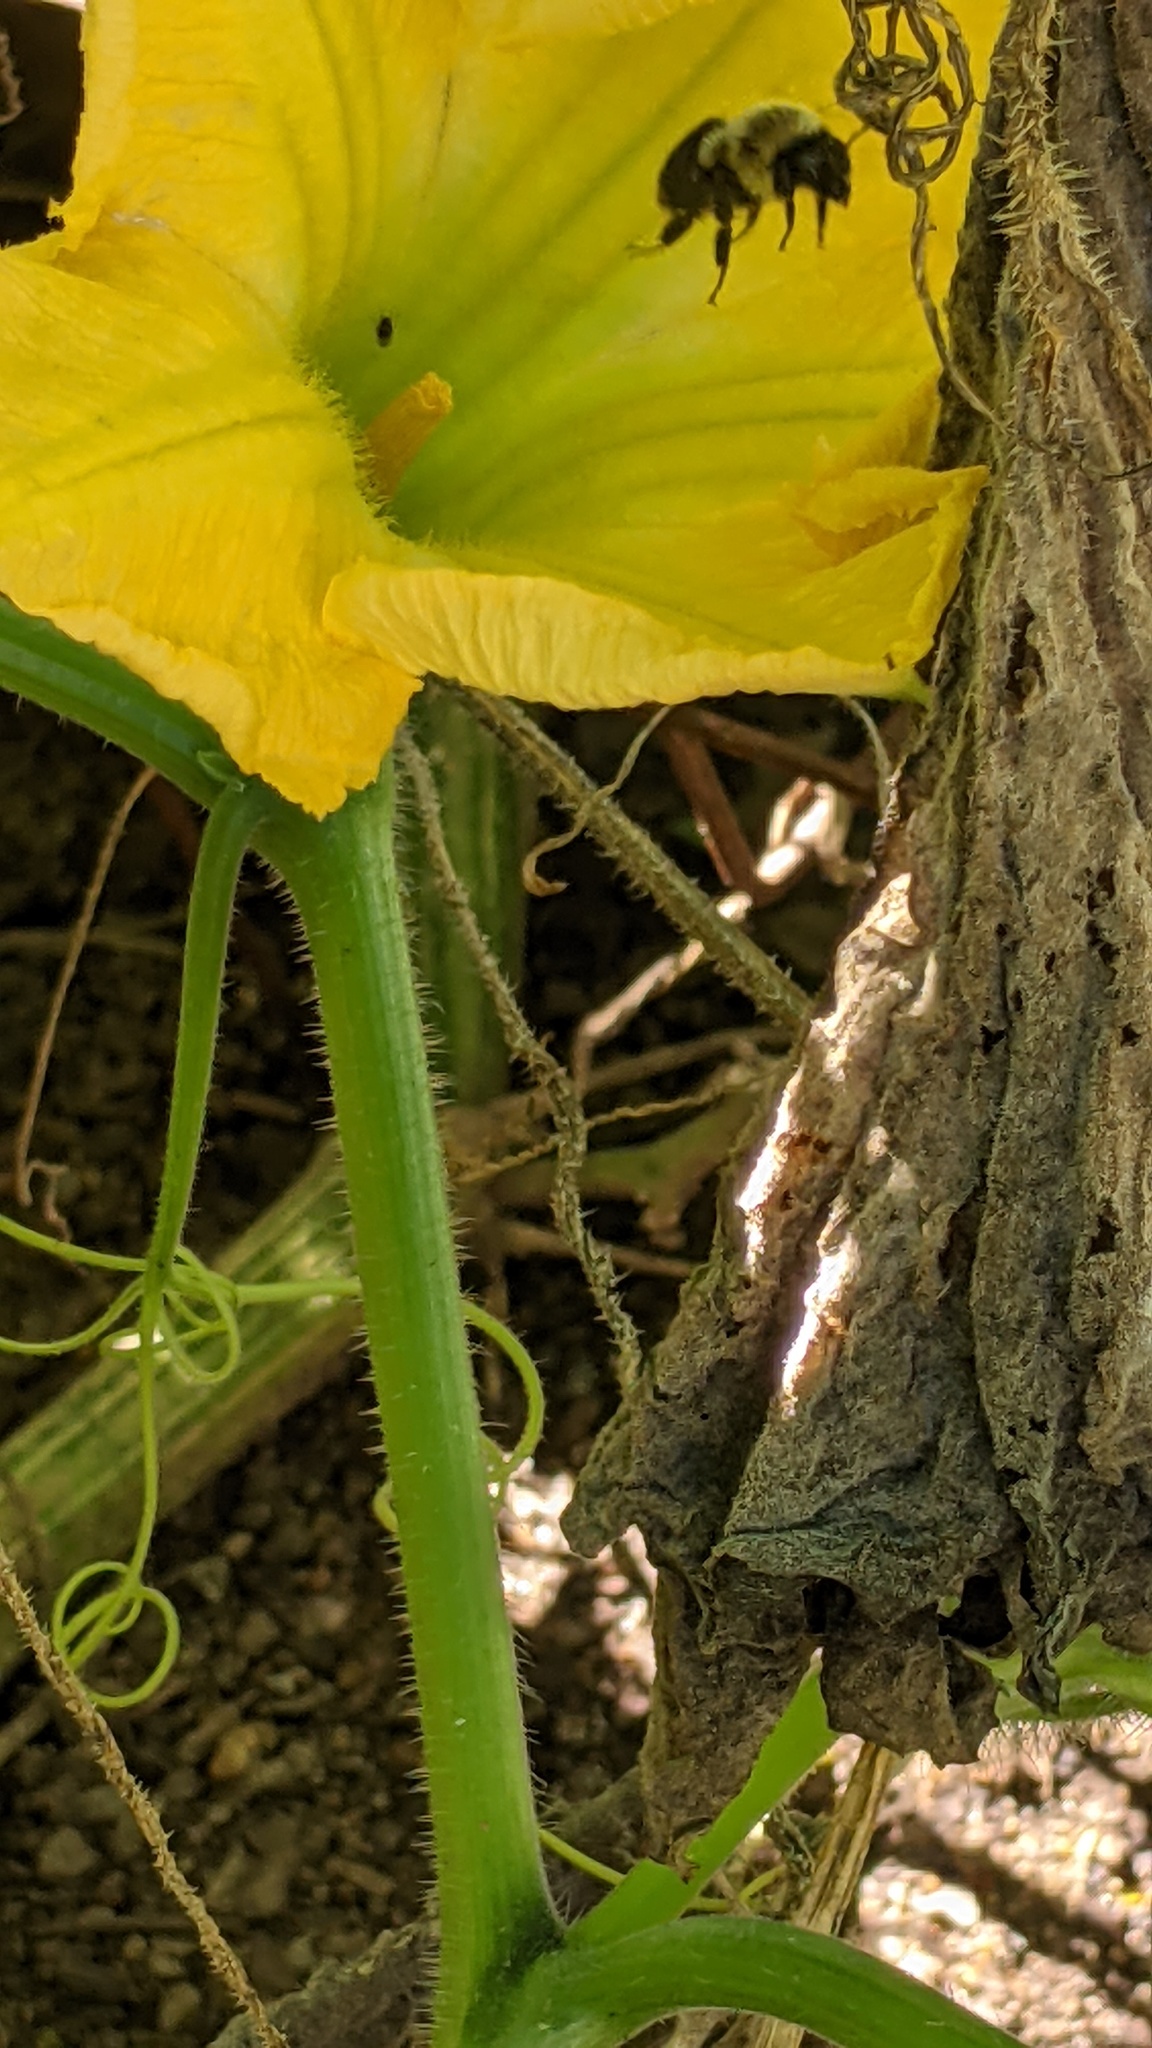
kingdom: Animalia
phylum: Arthropoda
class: Insecta
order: Hymenoptera
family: Apidae
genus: Bombus
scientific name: Bombus impatiens
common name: Common eastern bumble bee
